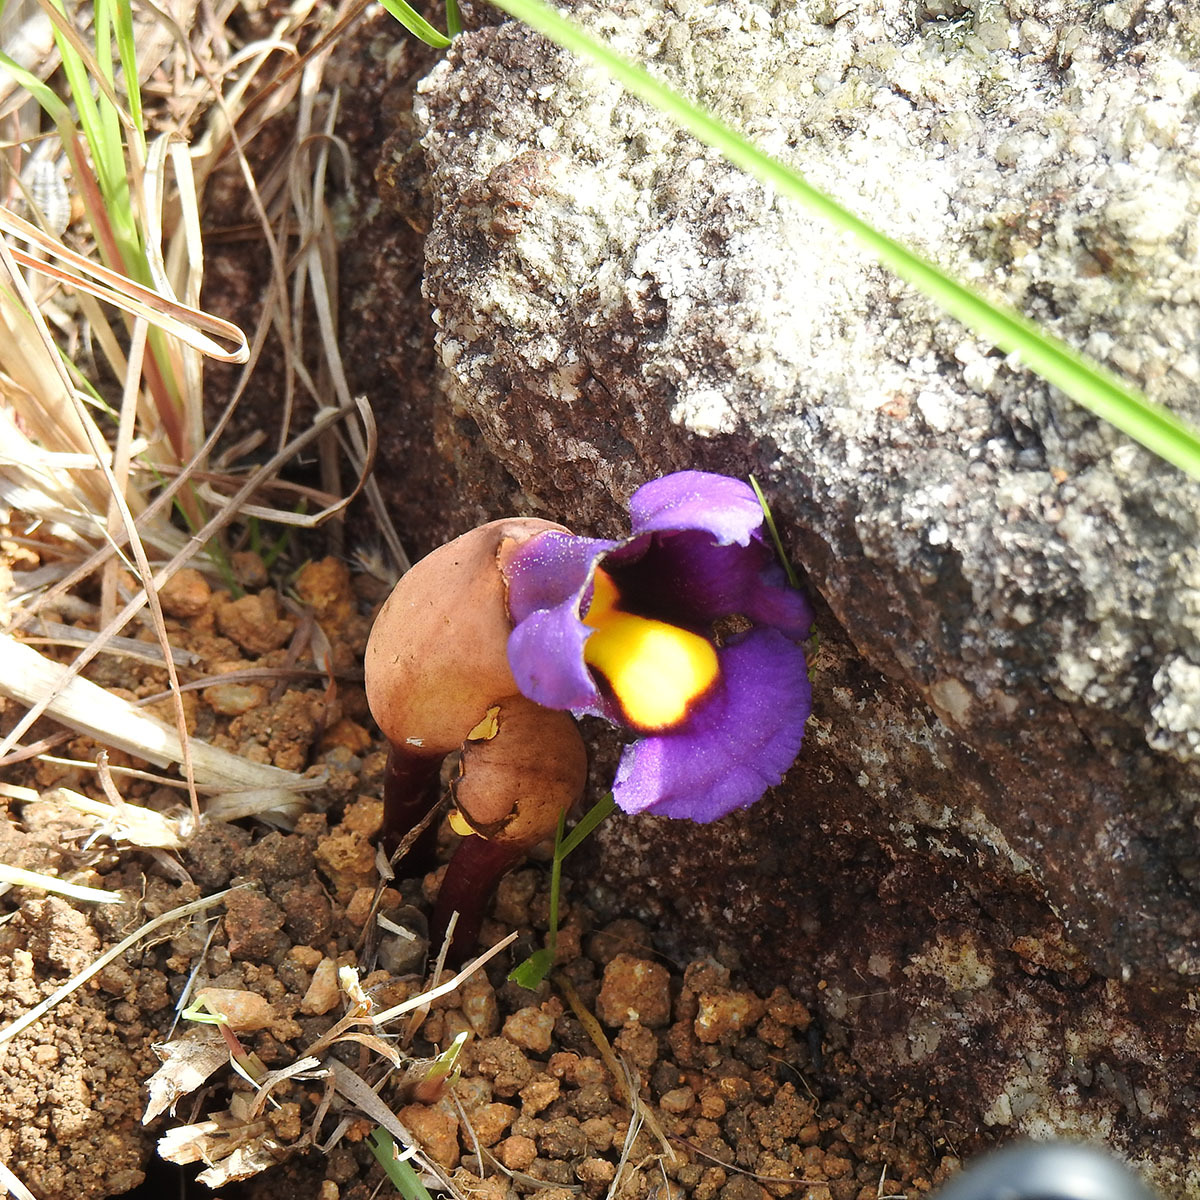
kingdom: Plantae
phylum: Tracheophyta
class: Magnoliopsida
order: Lamiales
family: Orobanchaceae
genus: Aeginetia
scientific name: Aeginetia acaulis
